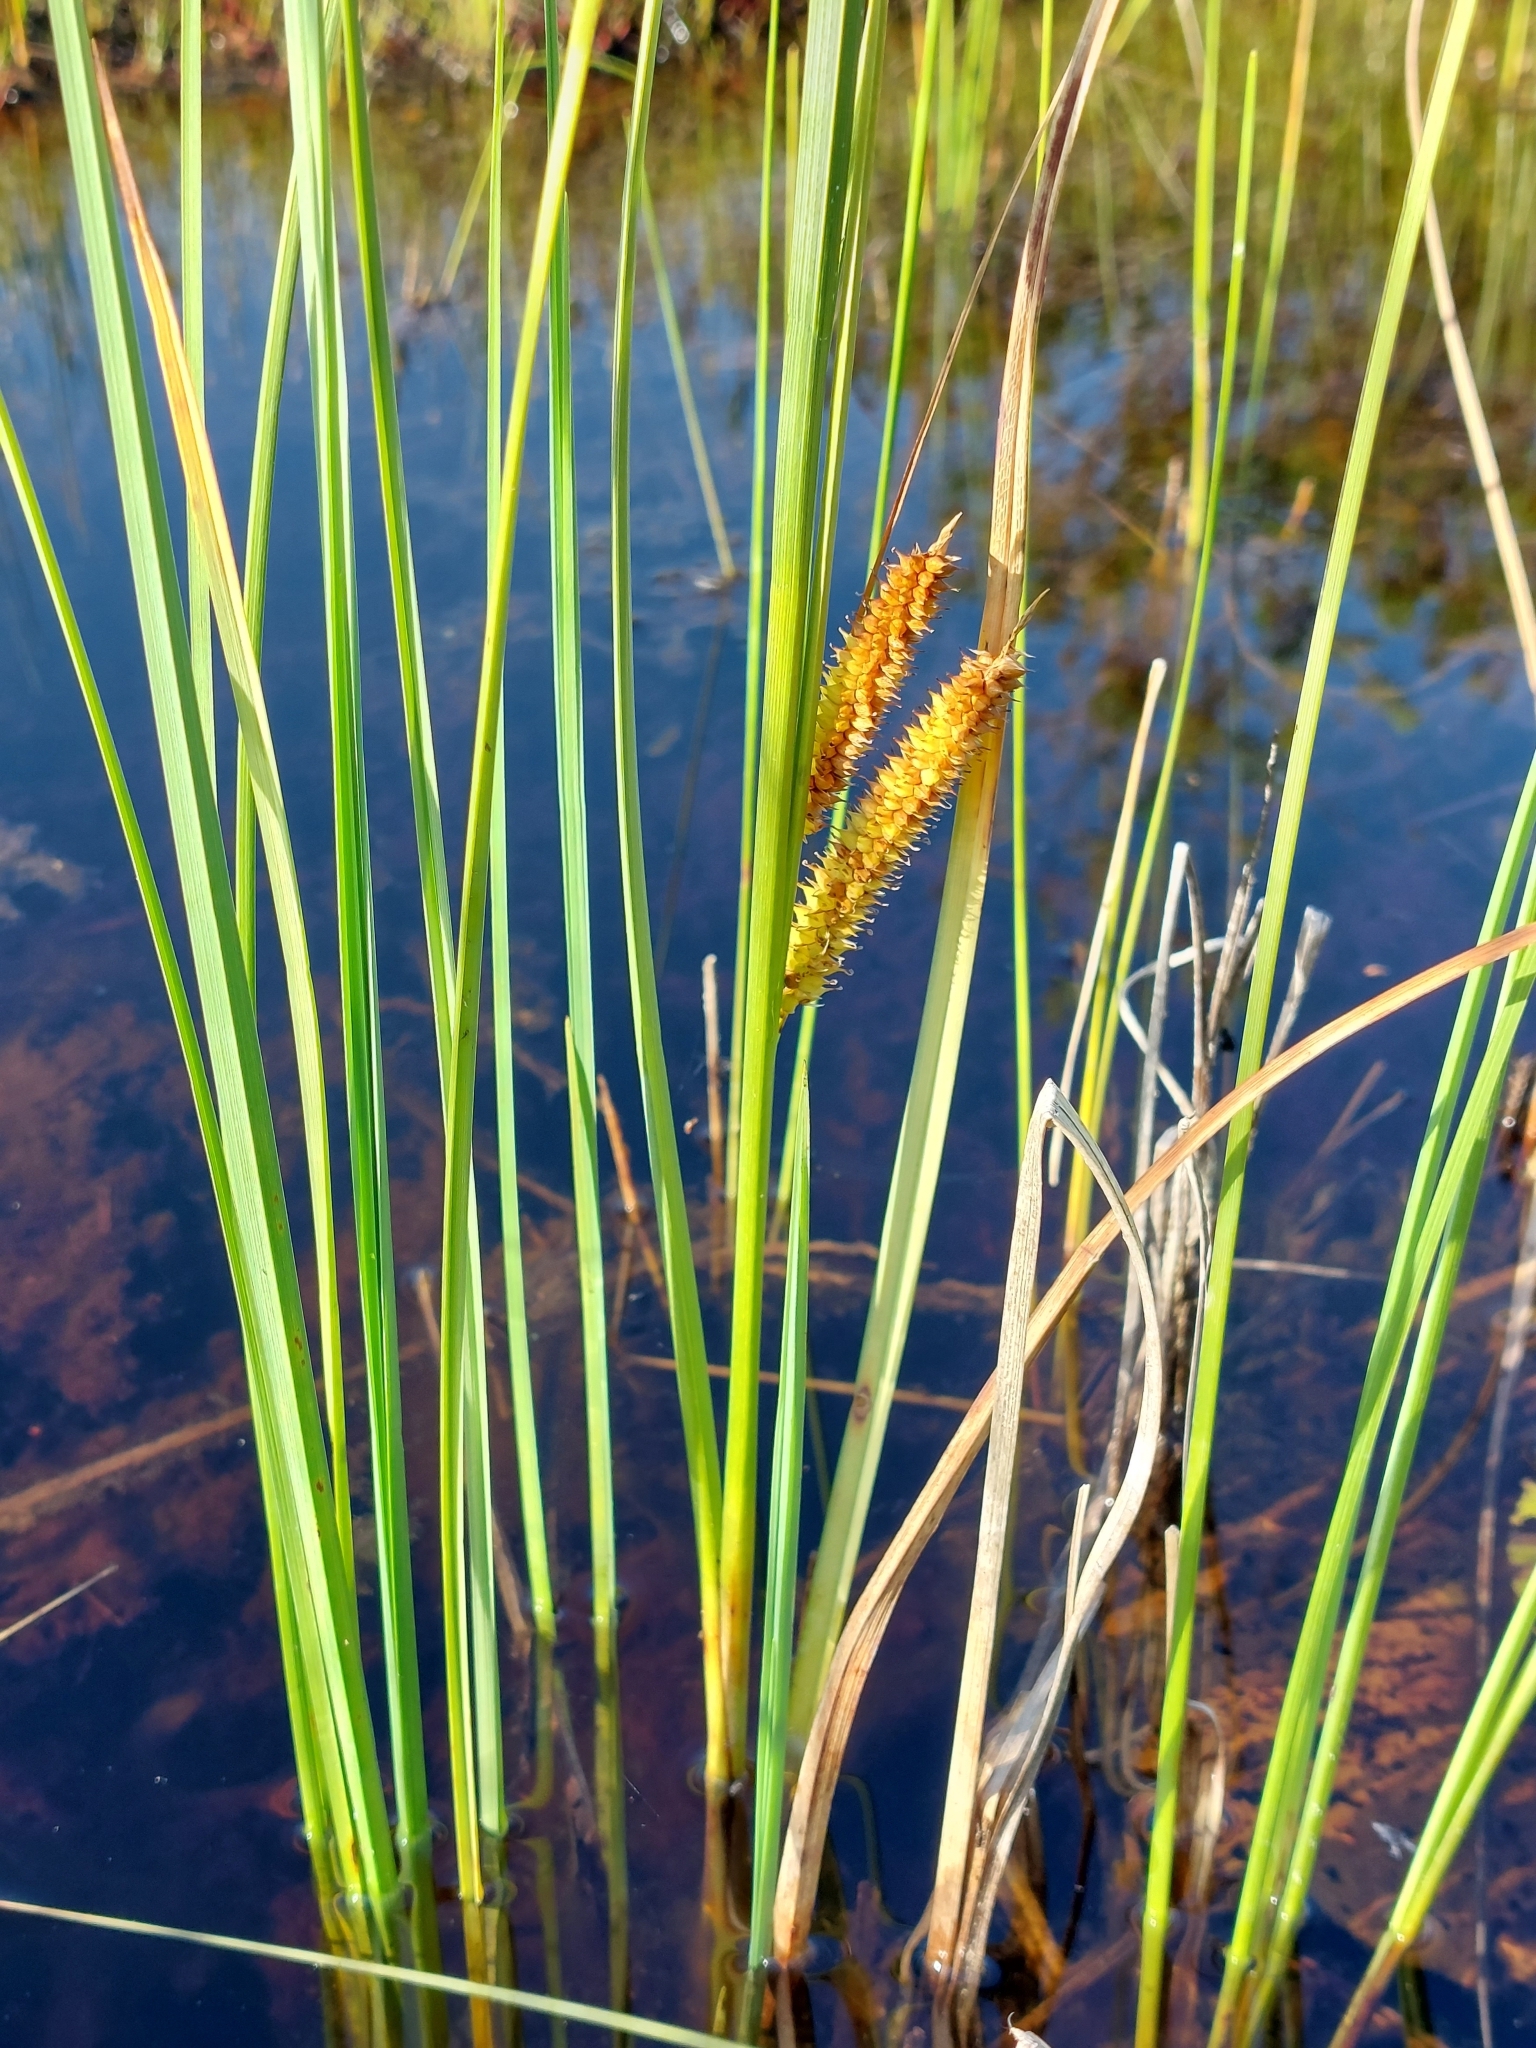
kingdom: Plantae
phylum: Tracheophyta
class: Liliopsida
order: Poales
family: Cyperaceae
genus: Carex
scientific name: Carex rostrata
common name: Bottle sedge
